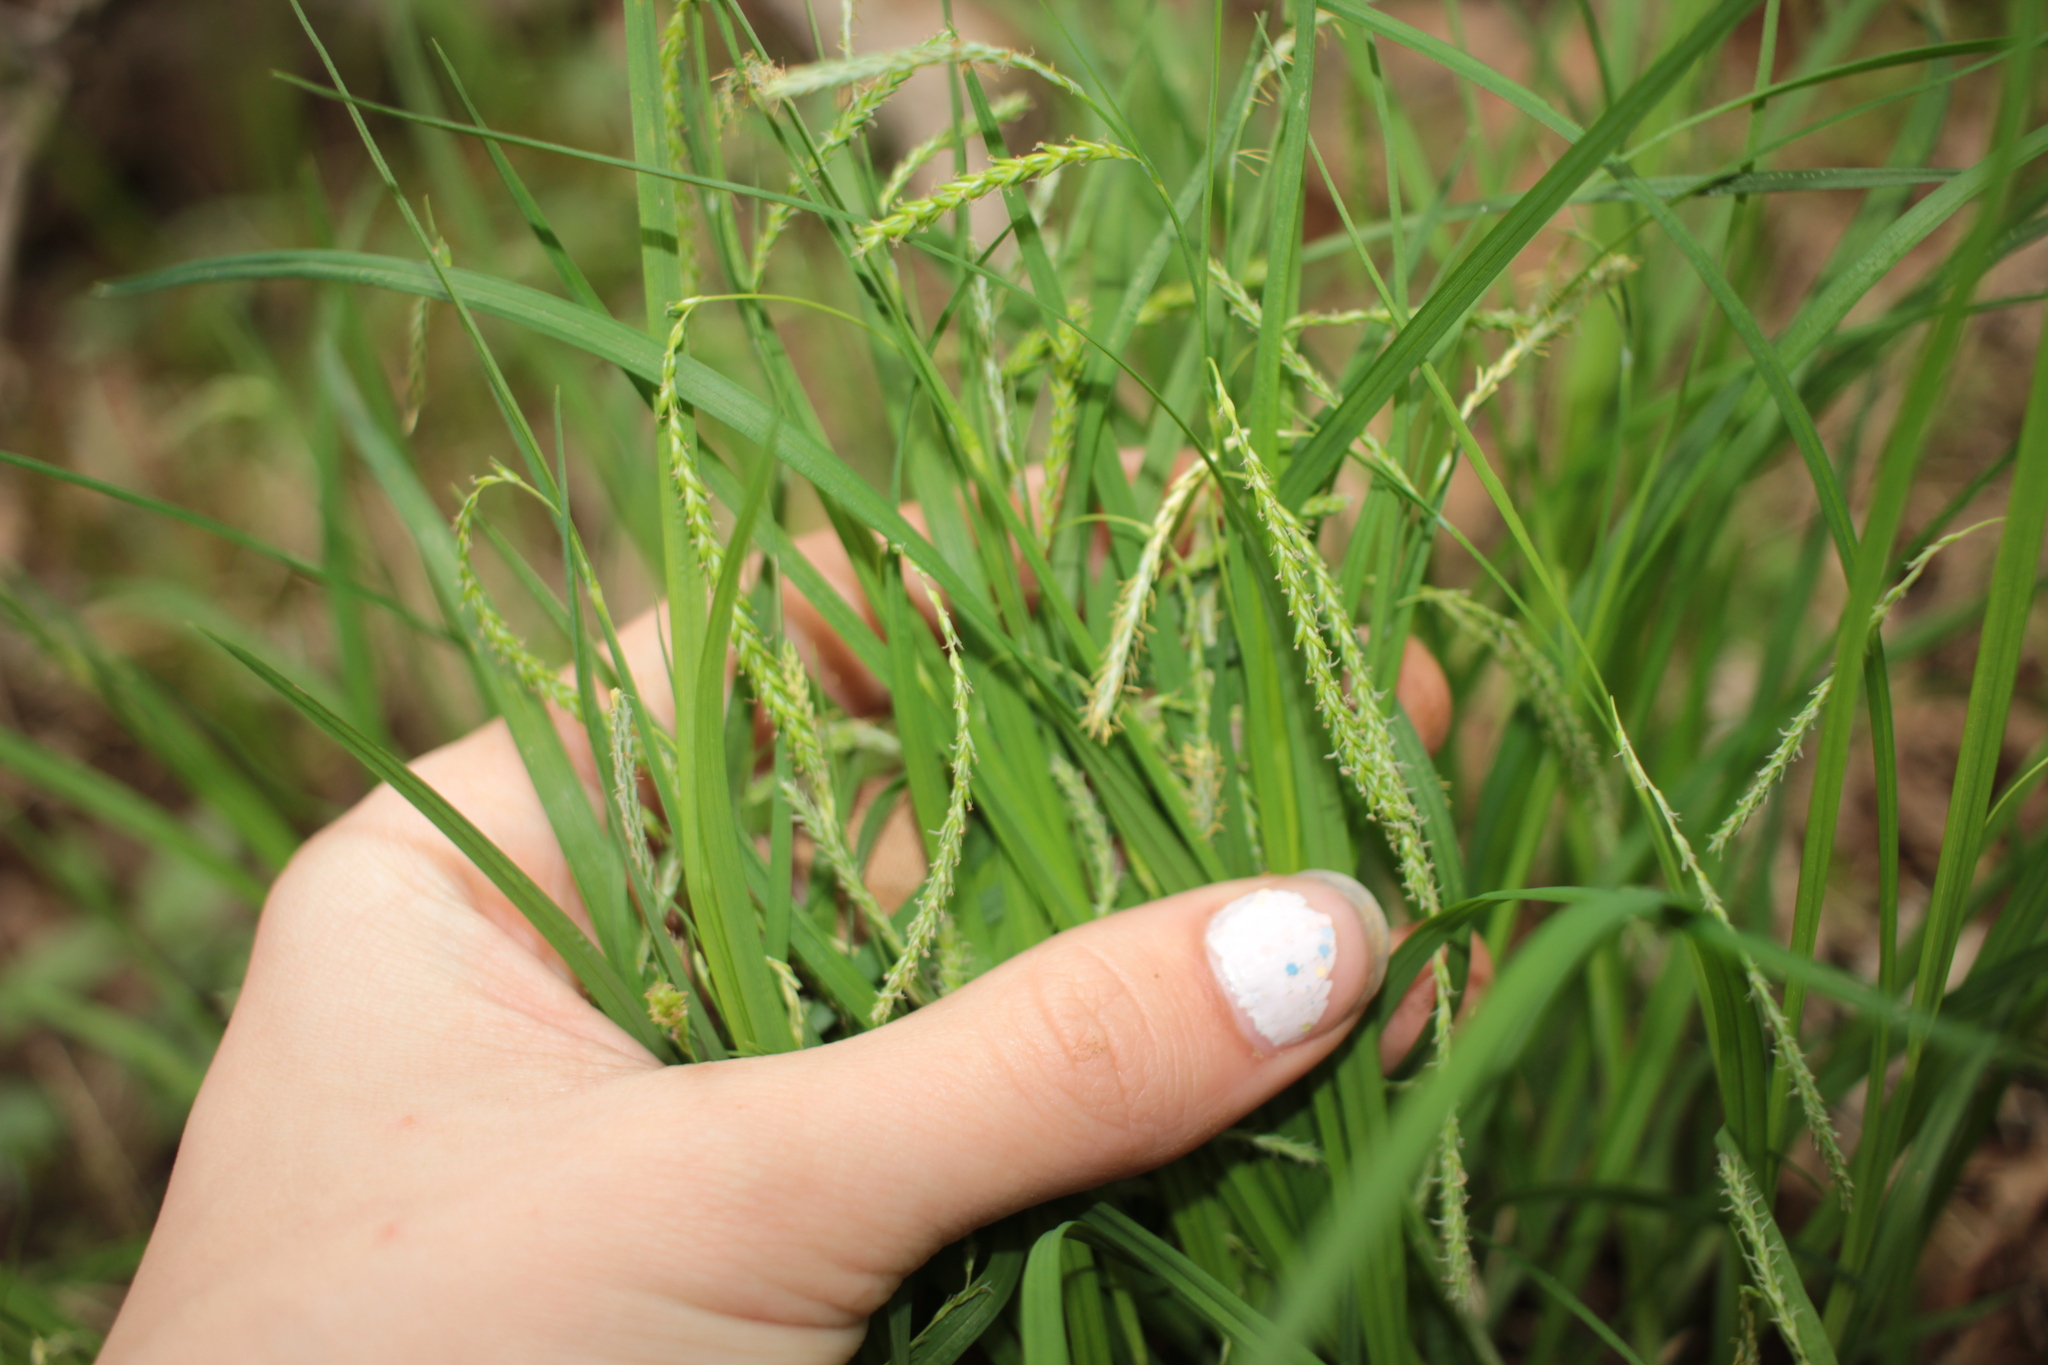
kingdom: Plantae
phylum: Tracheophyta
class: Liliopsida
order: Poales
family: Cyperaceae
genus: Carex
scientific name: Carex prasina
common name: Drooping sedge
